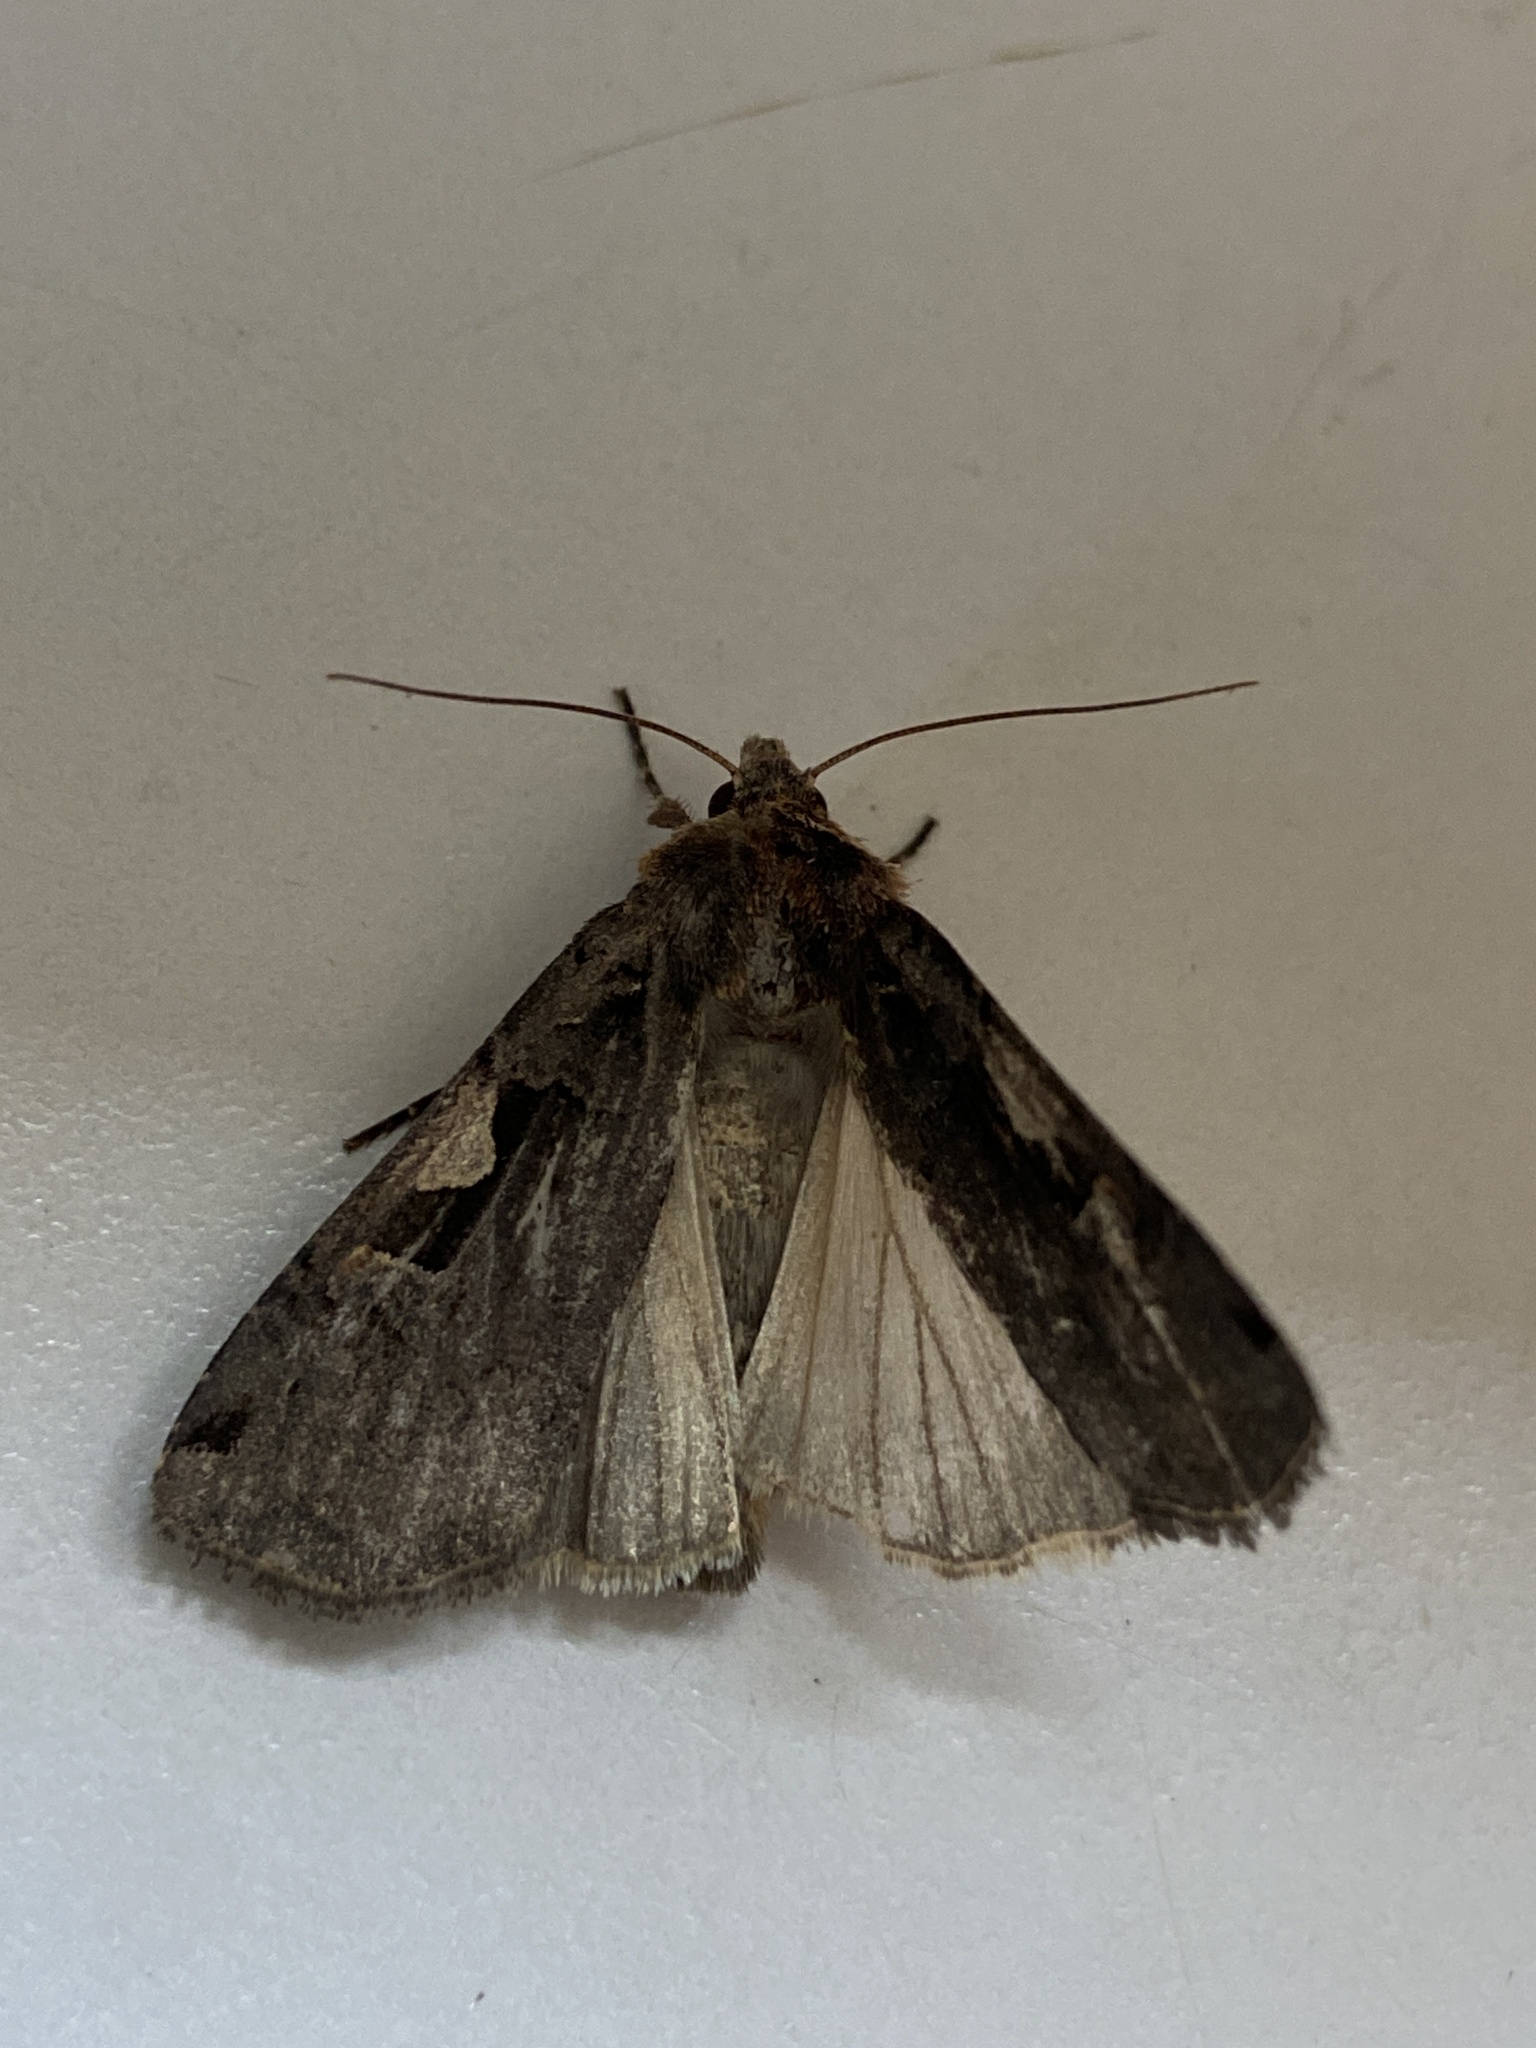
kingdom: Animalia
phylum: Arthropoda
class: Insecta
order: Lepidoptera
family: Noctuidae
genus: Xestia
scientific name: Xestia c-nigrum
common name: Setaceous hebrew character
